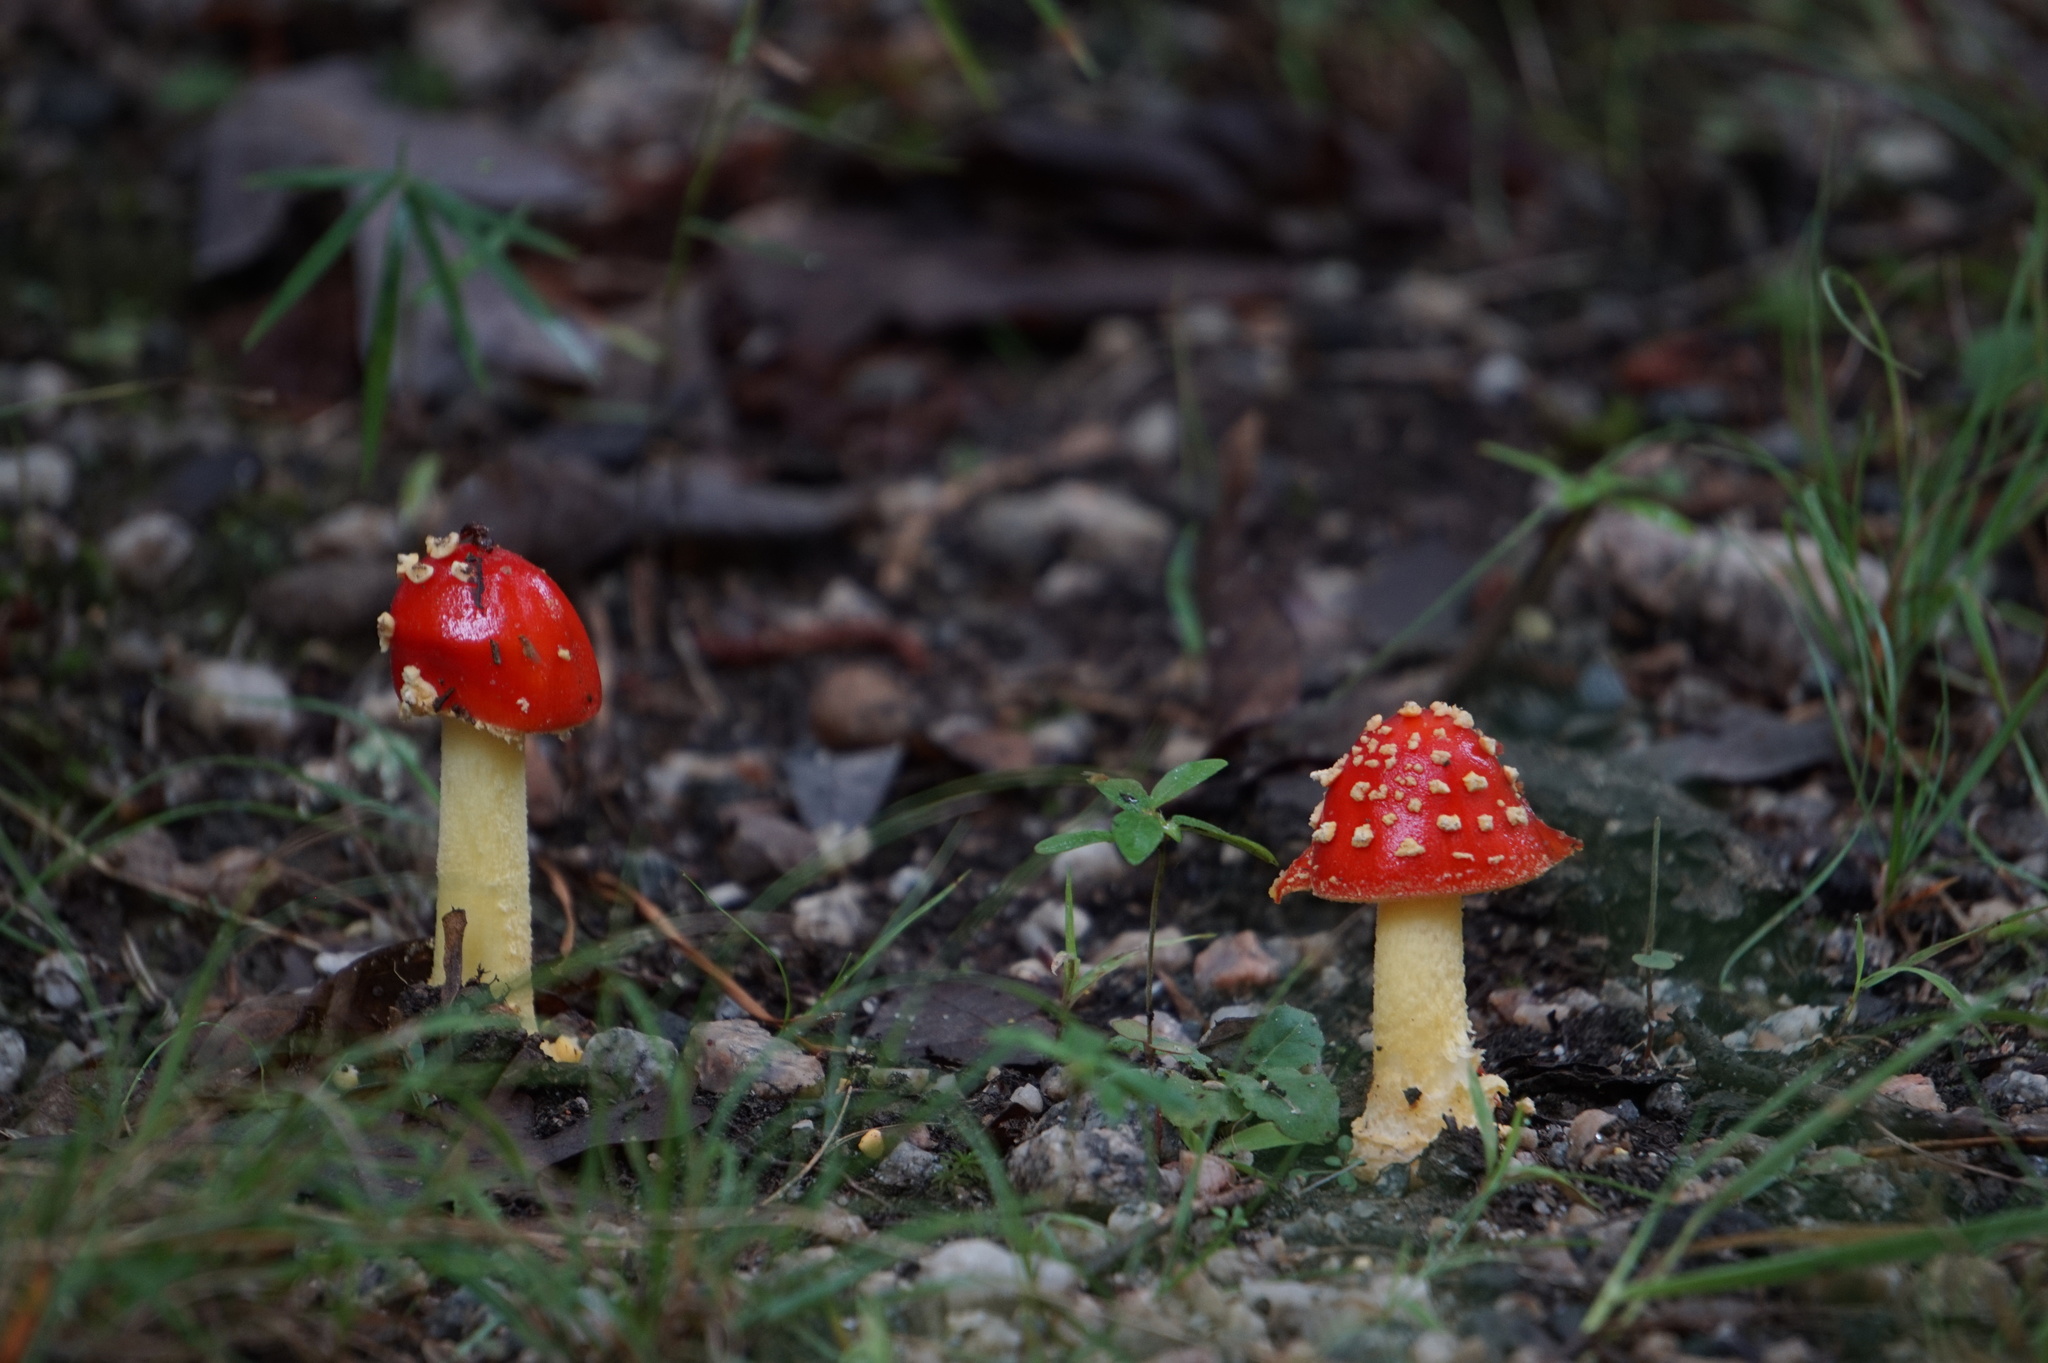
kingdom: Fungi
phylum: Basidiomycota
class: Agaricomycetes
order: Agaricales
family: Amanitaceae
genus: Amanita
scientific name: Amanita parcivolvata
